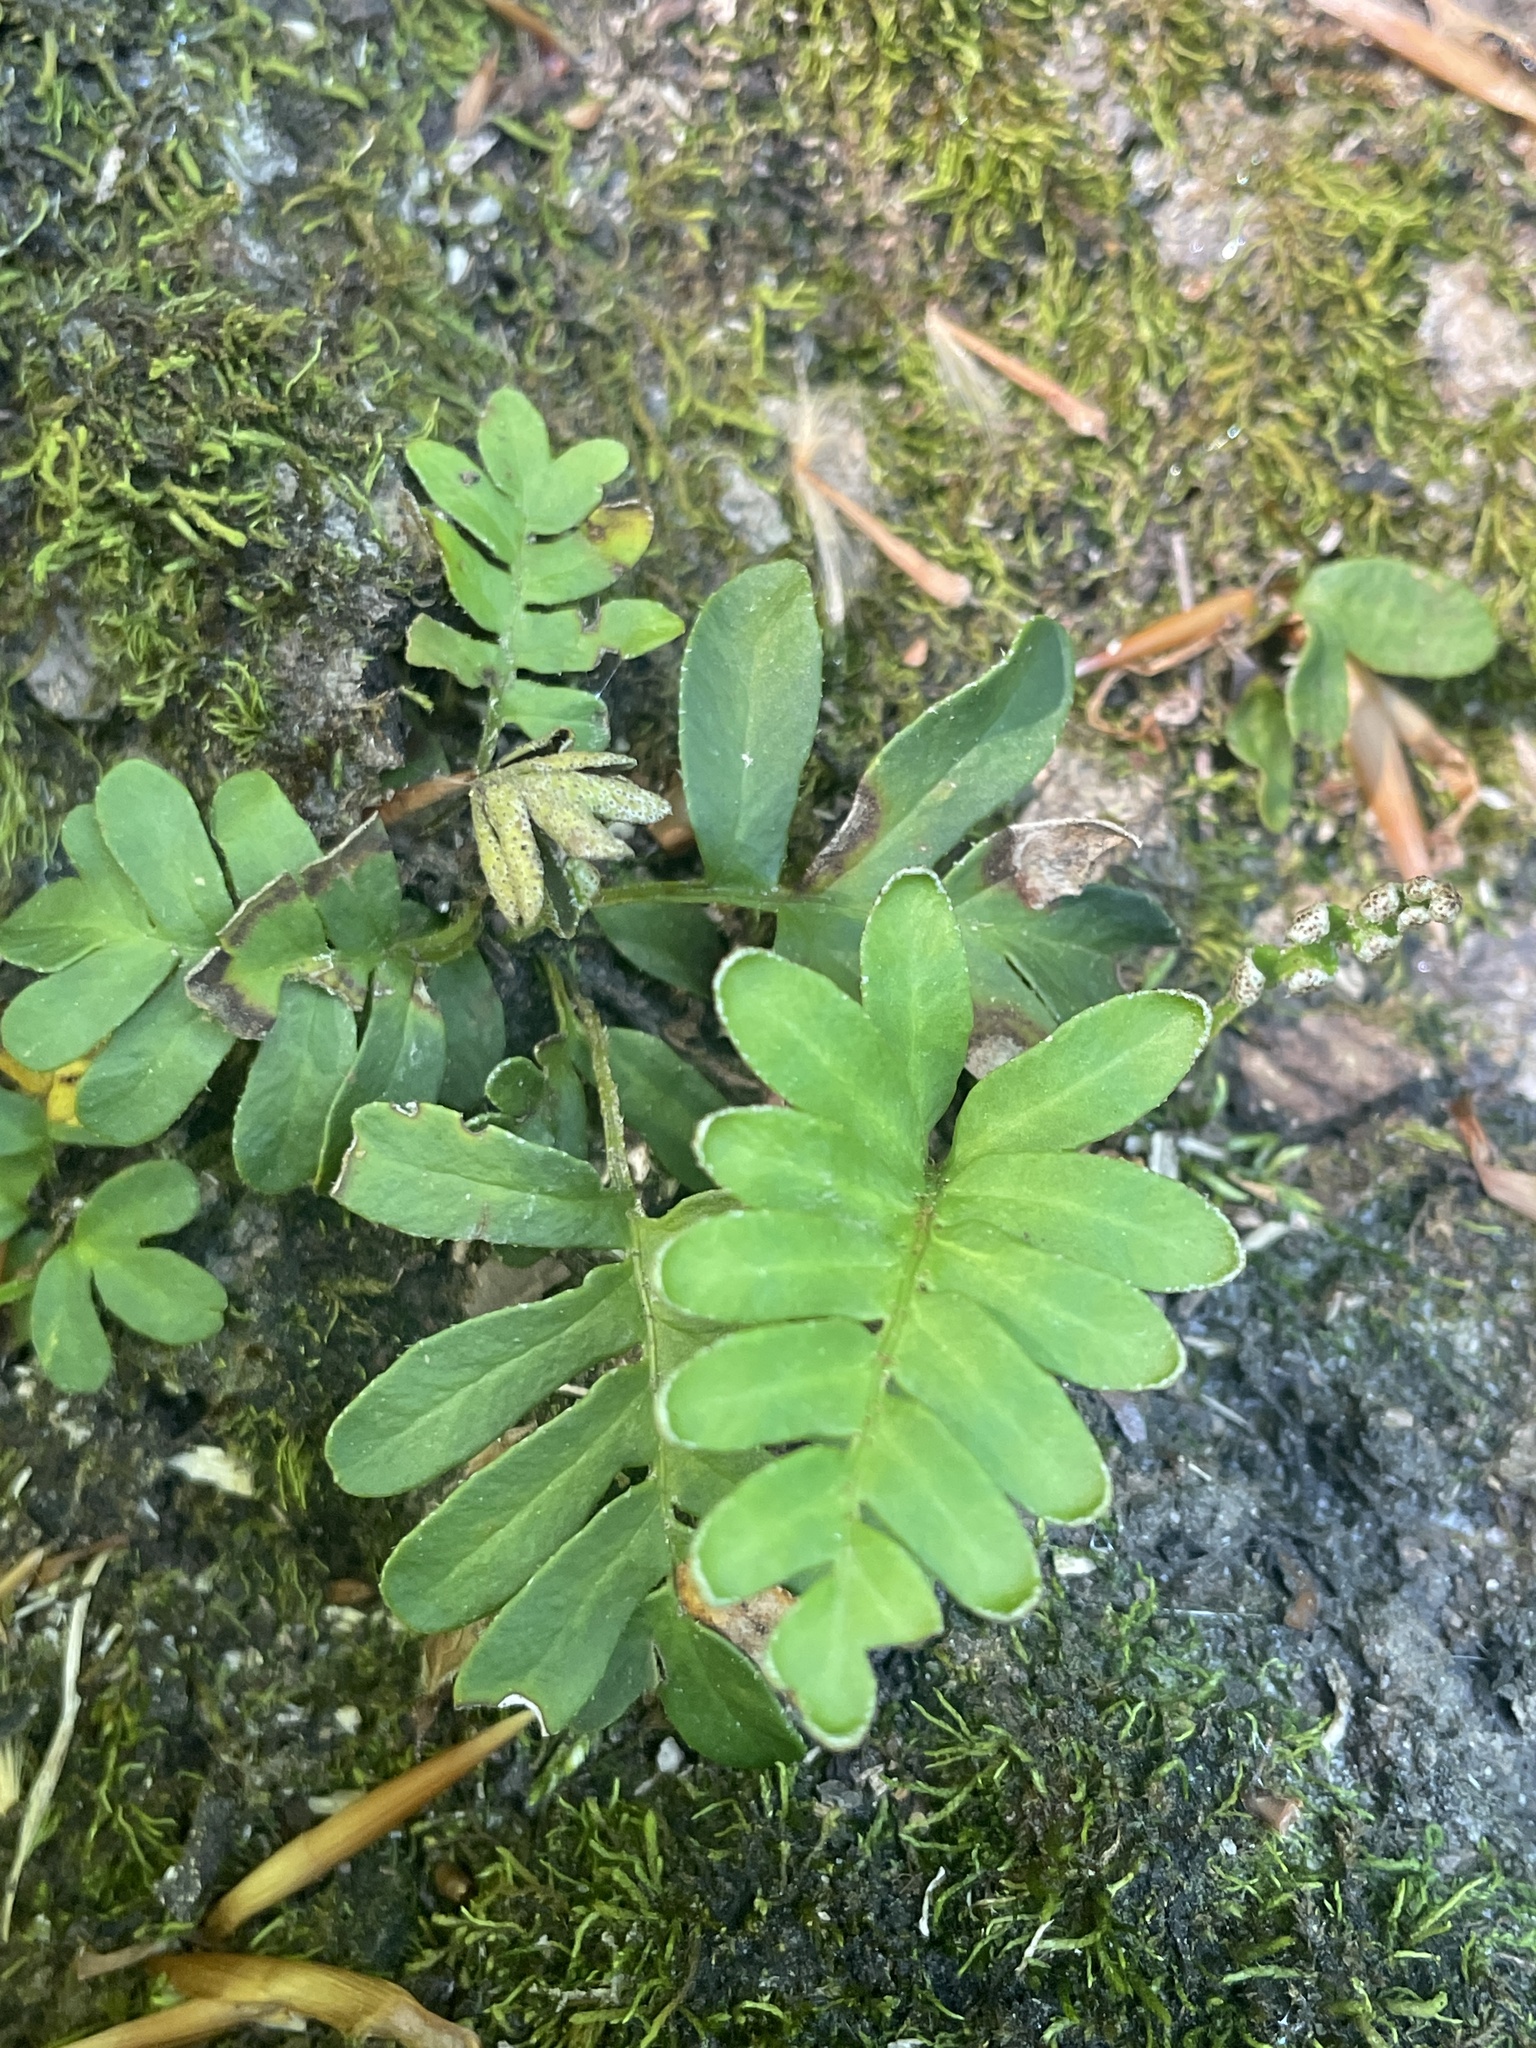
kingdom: Plantae
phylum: Tracheophyta
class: Polypodiopsida
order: Polypodiales
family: Polypodiaceae
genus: Pleopeltis
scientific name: Pleopeltis michauxiana
